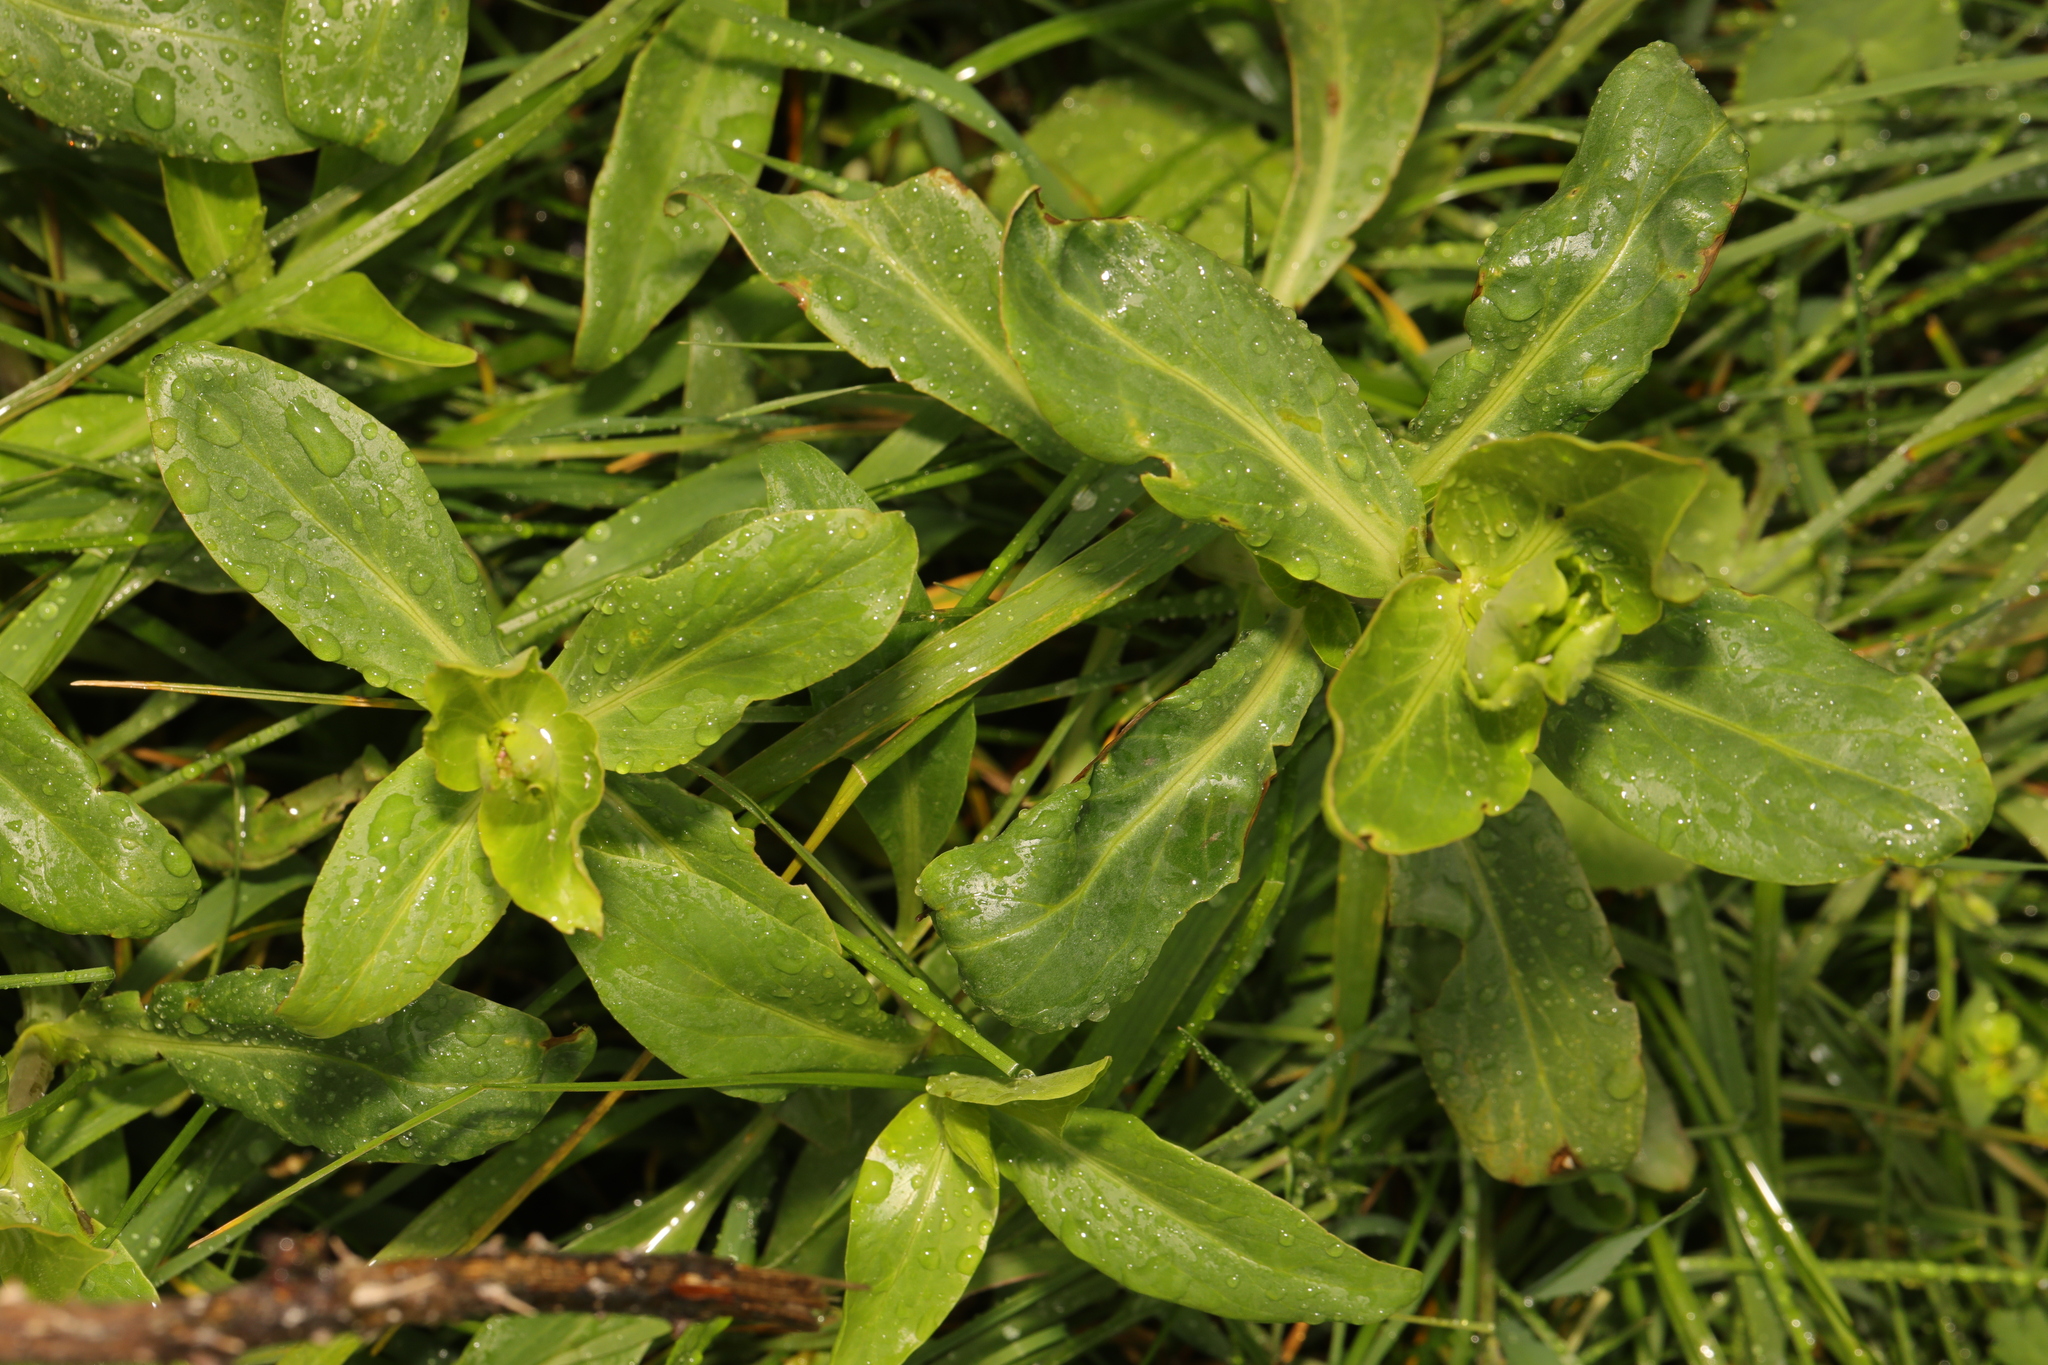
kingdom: Plantae
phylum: Tracheophyta
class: Magnoliopsida
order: Lamiales
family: Plantaginaceae
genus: Veronica
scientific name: Veronica beccabunga
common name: Brooklime
